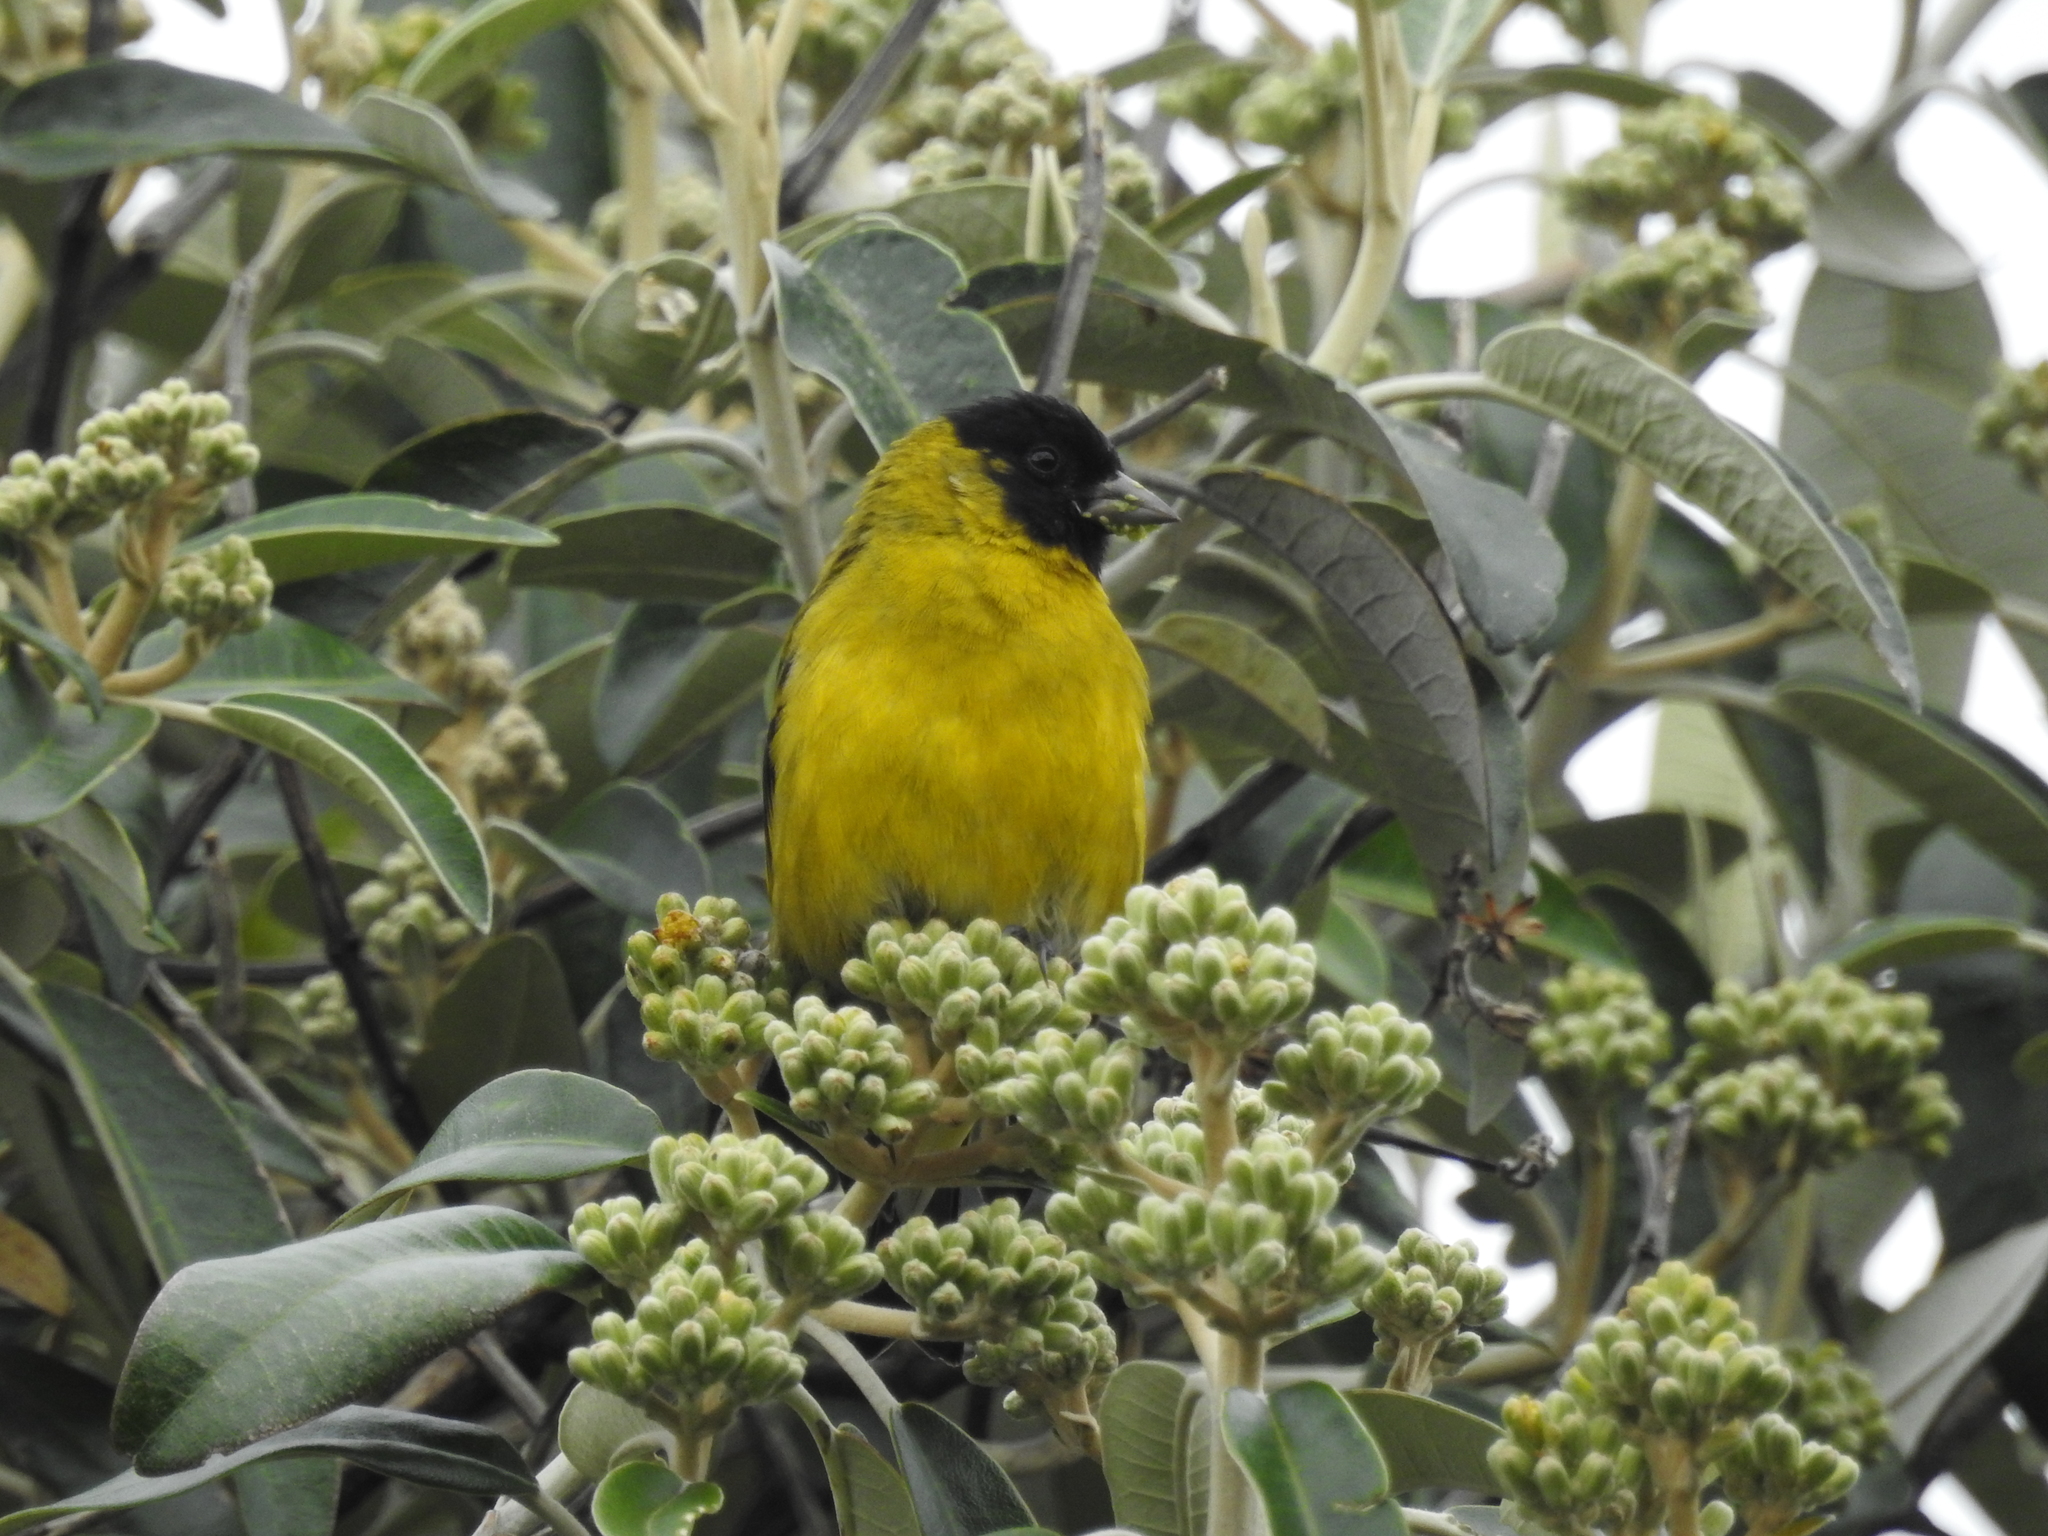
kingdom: Animalia
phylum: Chordata
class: Aves
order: Passeriformes
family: Fringillidae
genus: Spinus
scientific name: Spinus magellanicus
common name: Hooded siskin
